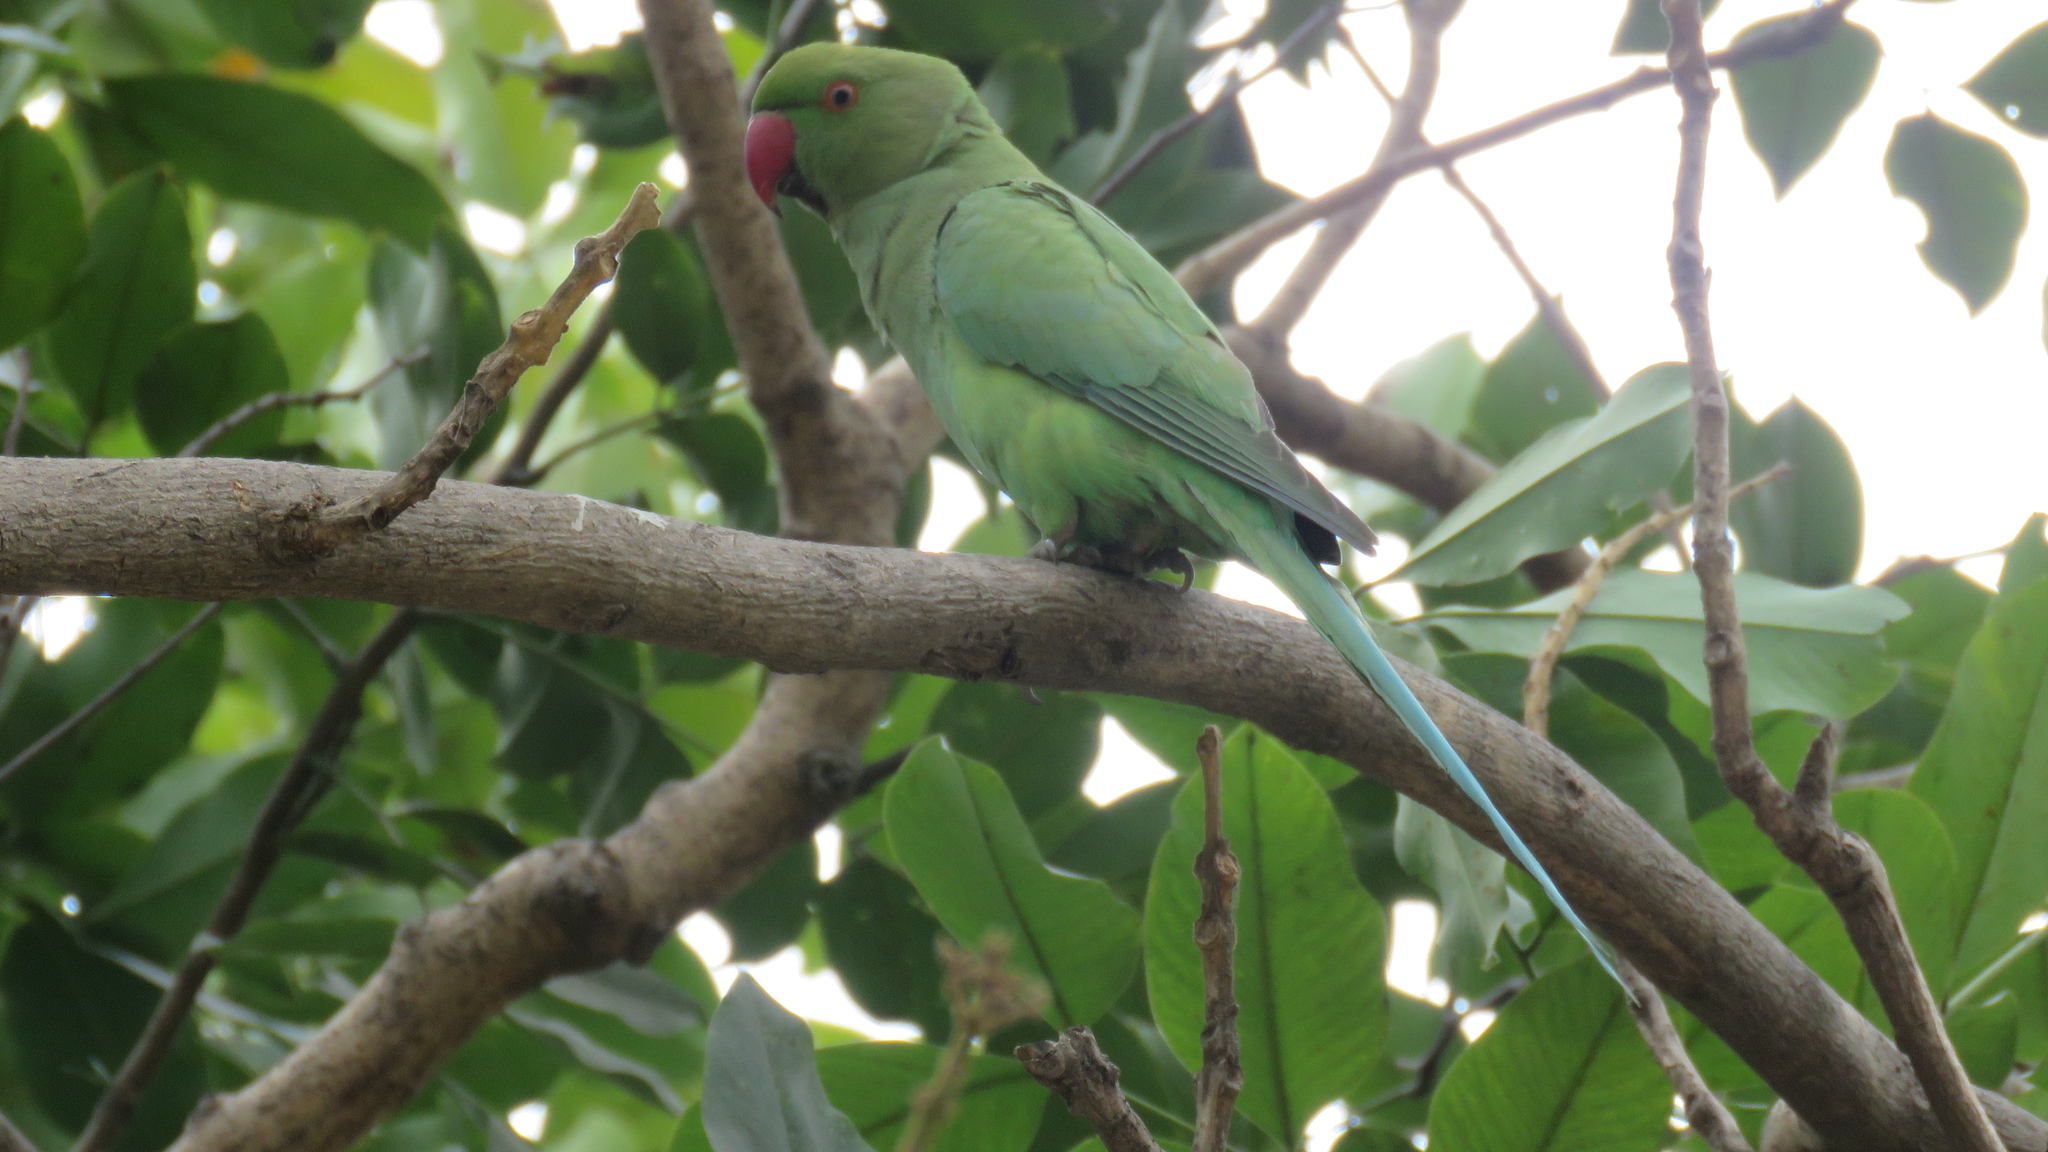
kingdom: Animalia
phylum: Chordata
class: Aves
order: Psittaciformes
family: Psittacidae
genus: Psittacula
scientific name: Psittacula krameri
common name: Rose-ringed parakeet
